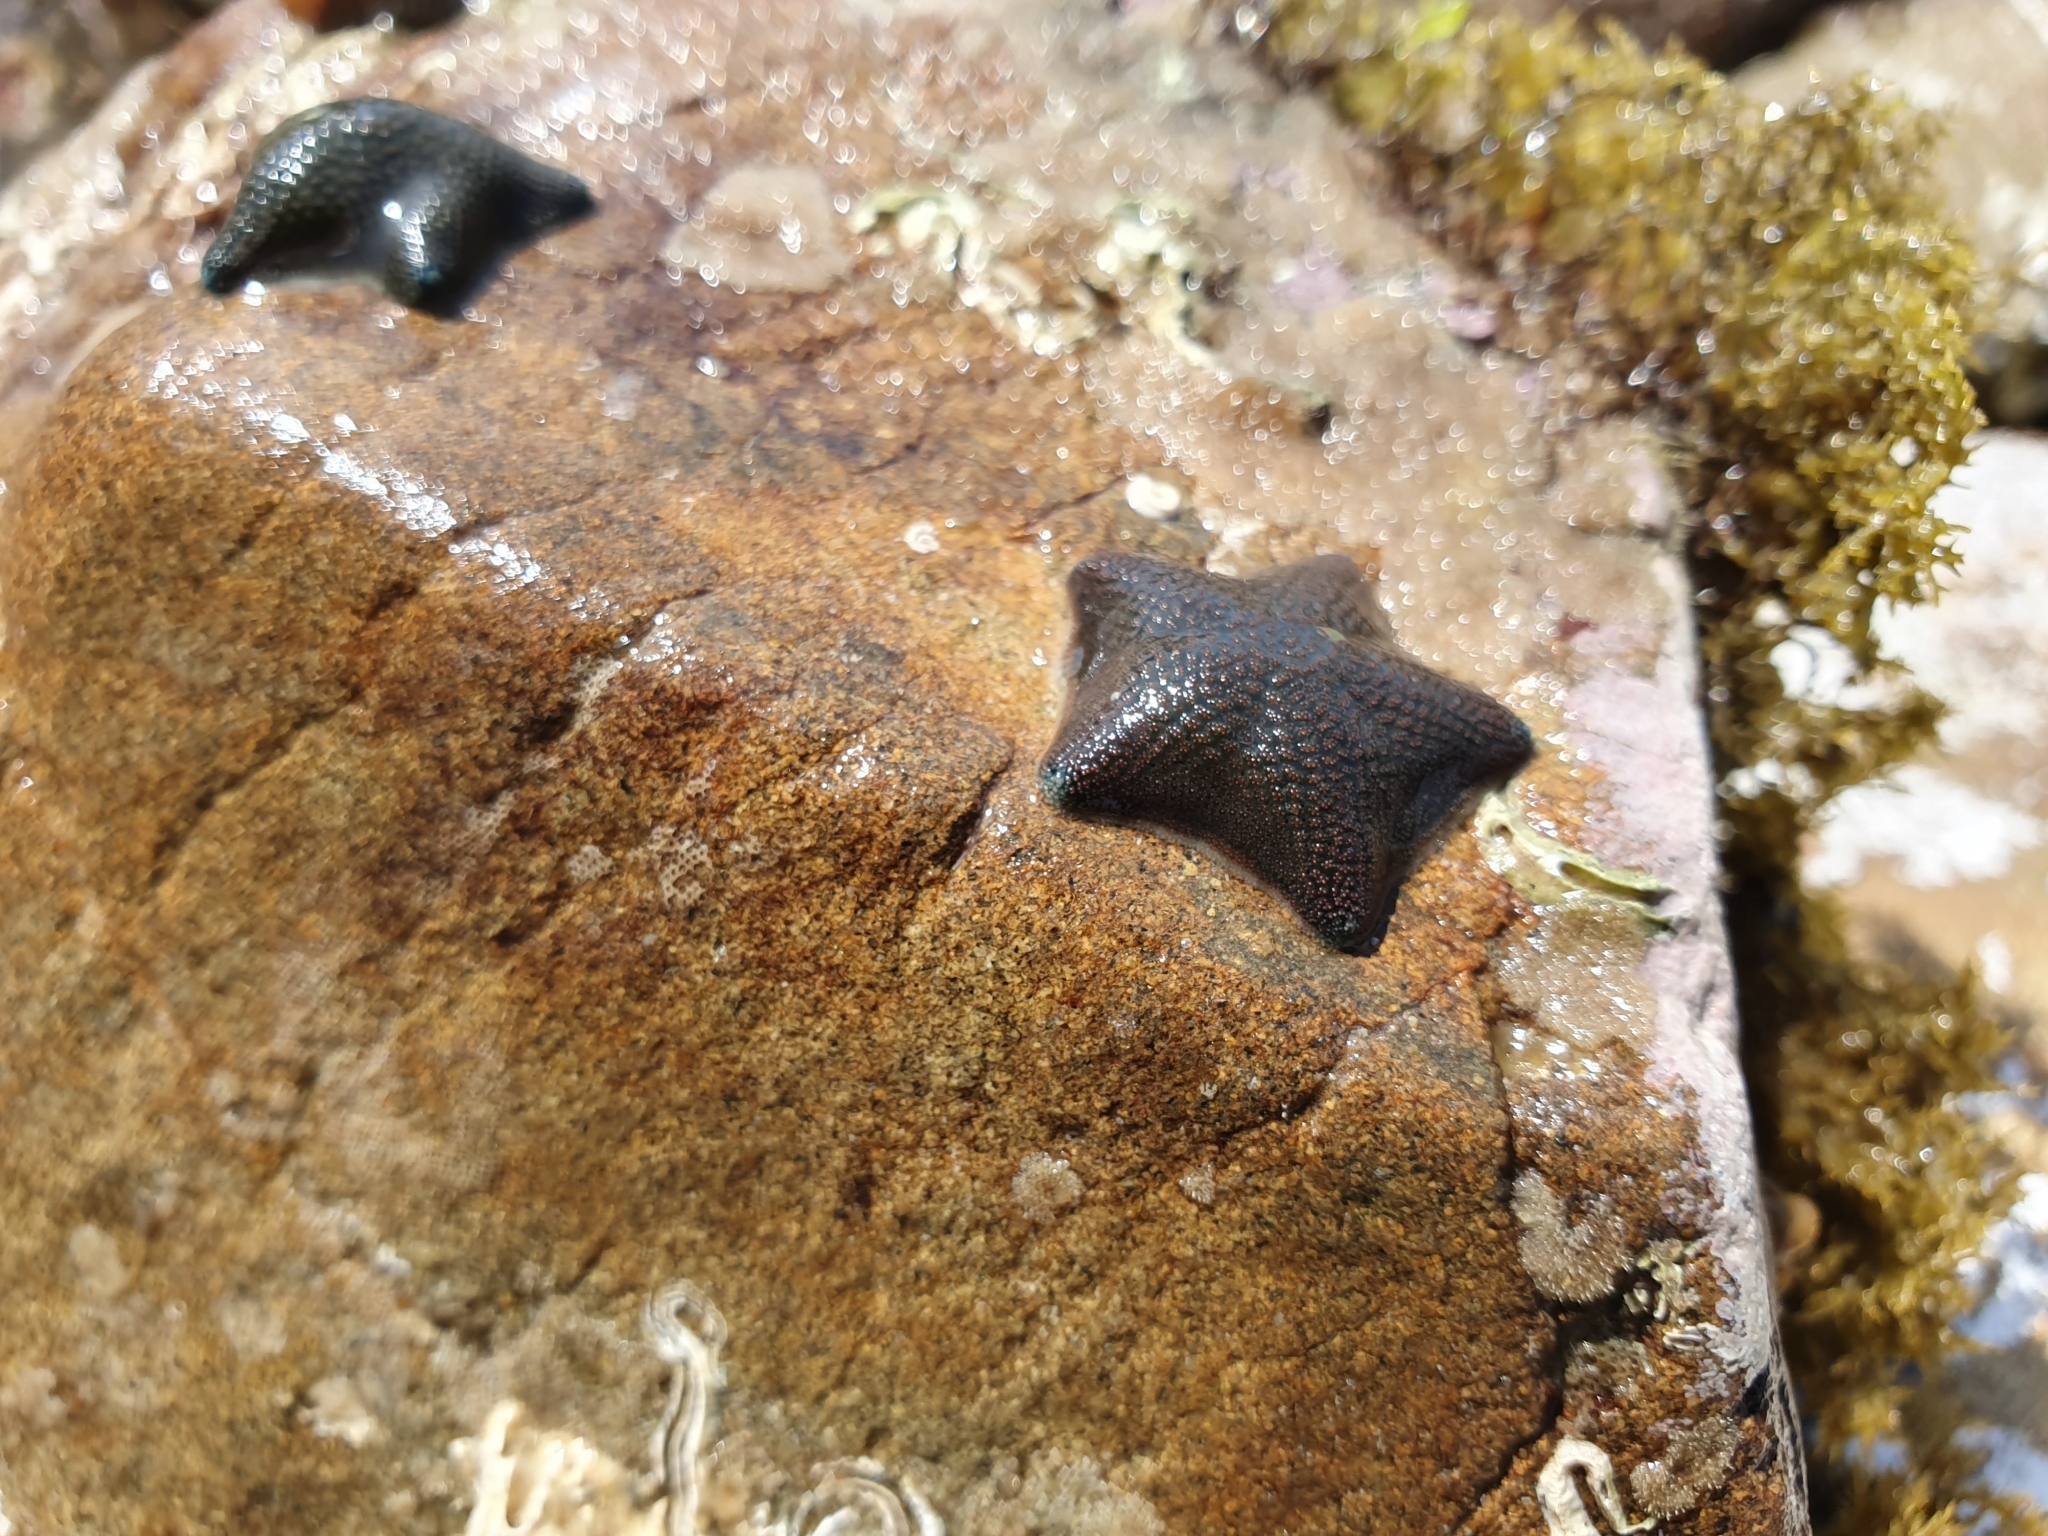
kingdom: Animalia
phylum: Echinodermata
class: Asteroidea
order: Valvatida
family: Asterinidae
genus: Patiriella
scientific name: Patiriella regularis
